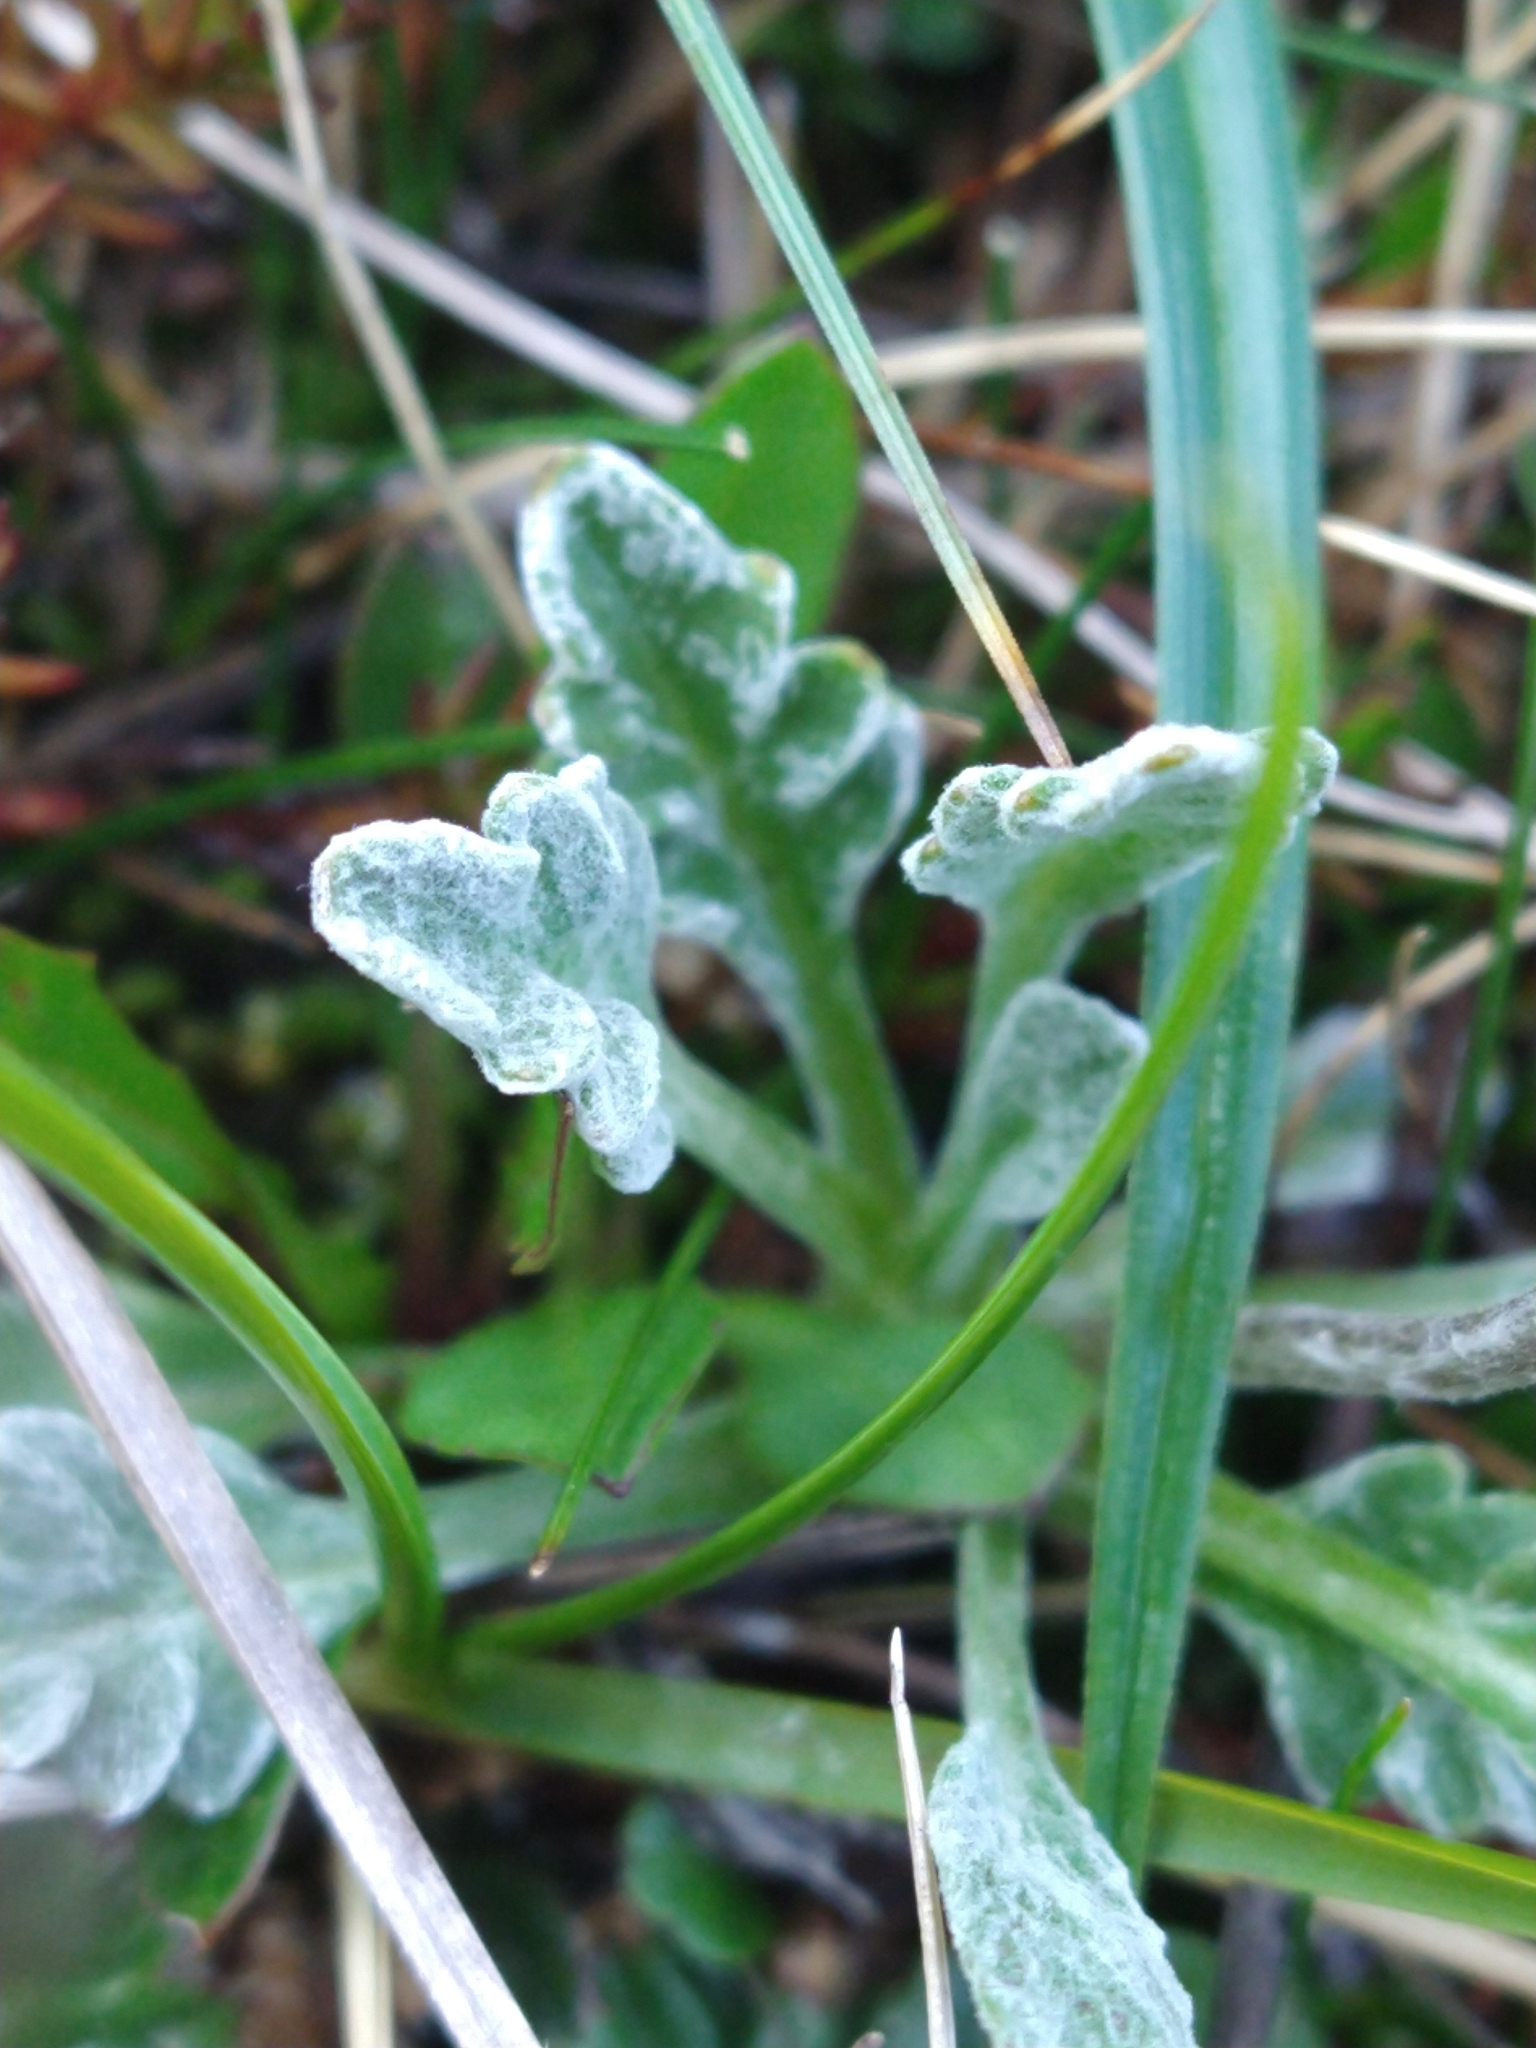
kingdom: Plantae
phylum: Tracheophyta
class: Magnoliopsida
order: Asterales
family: Asteraceae
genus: Leucheria
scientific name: Leucheria hahnii
